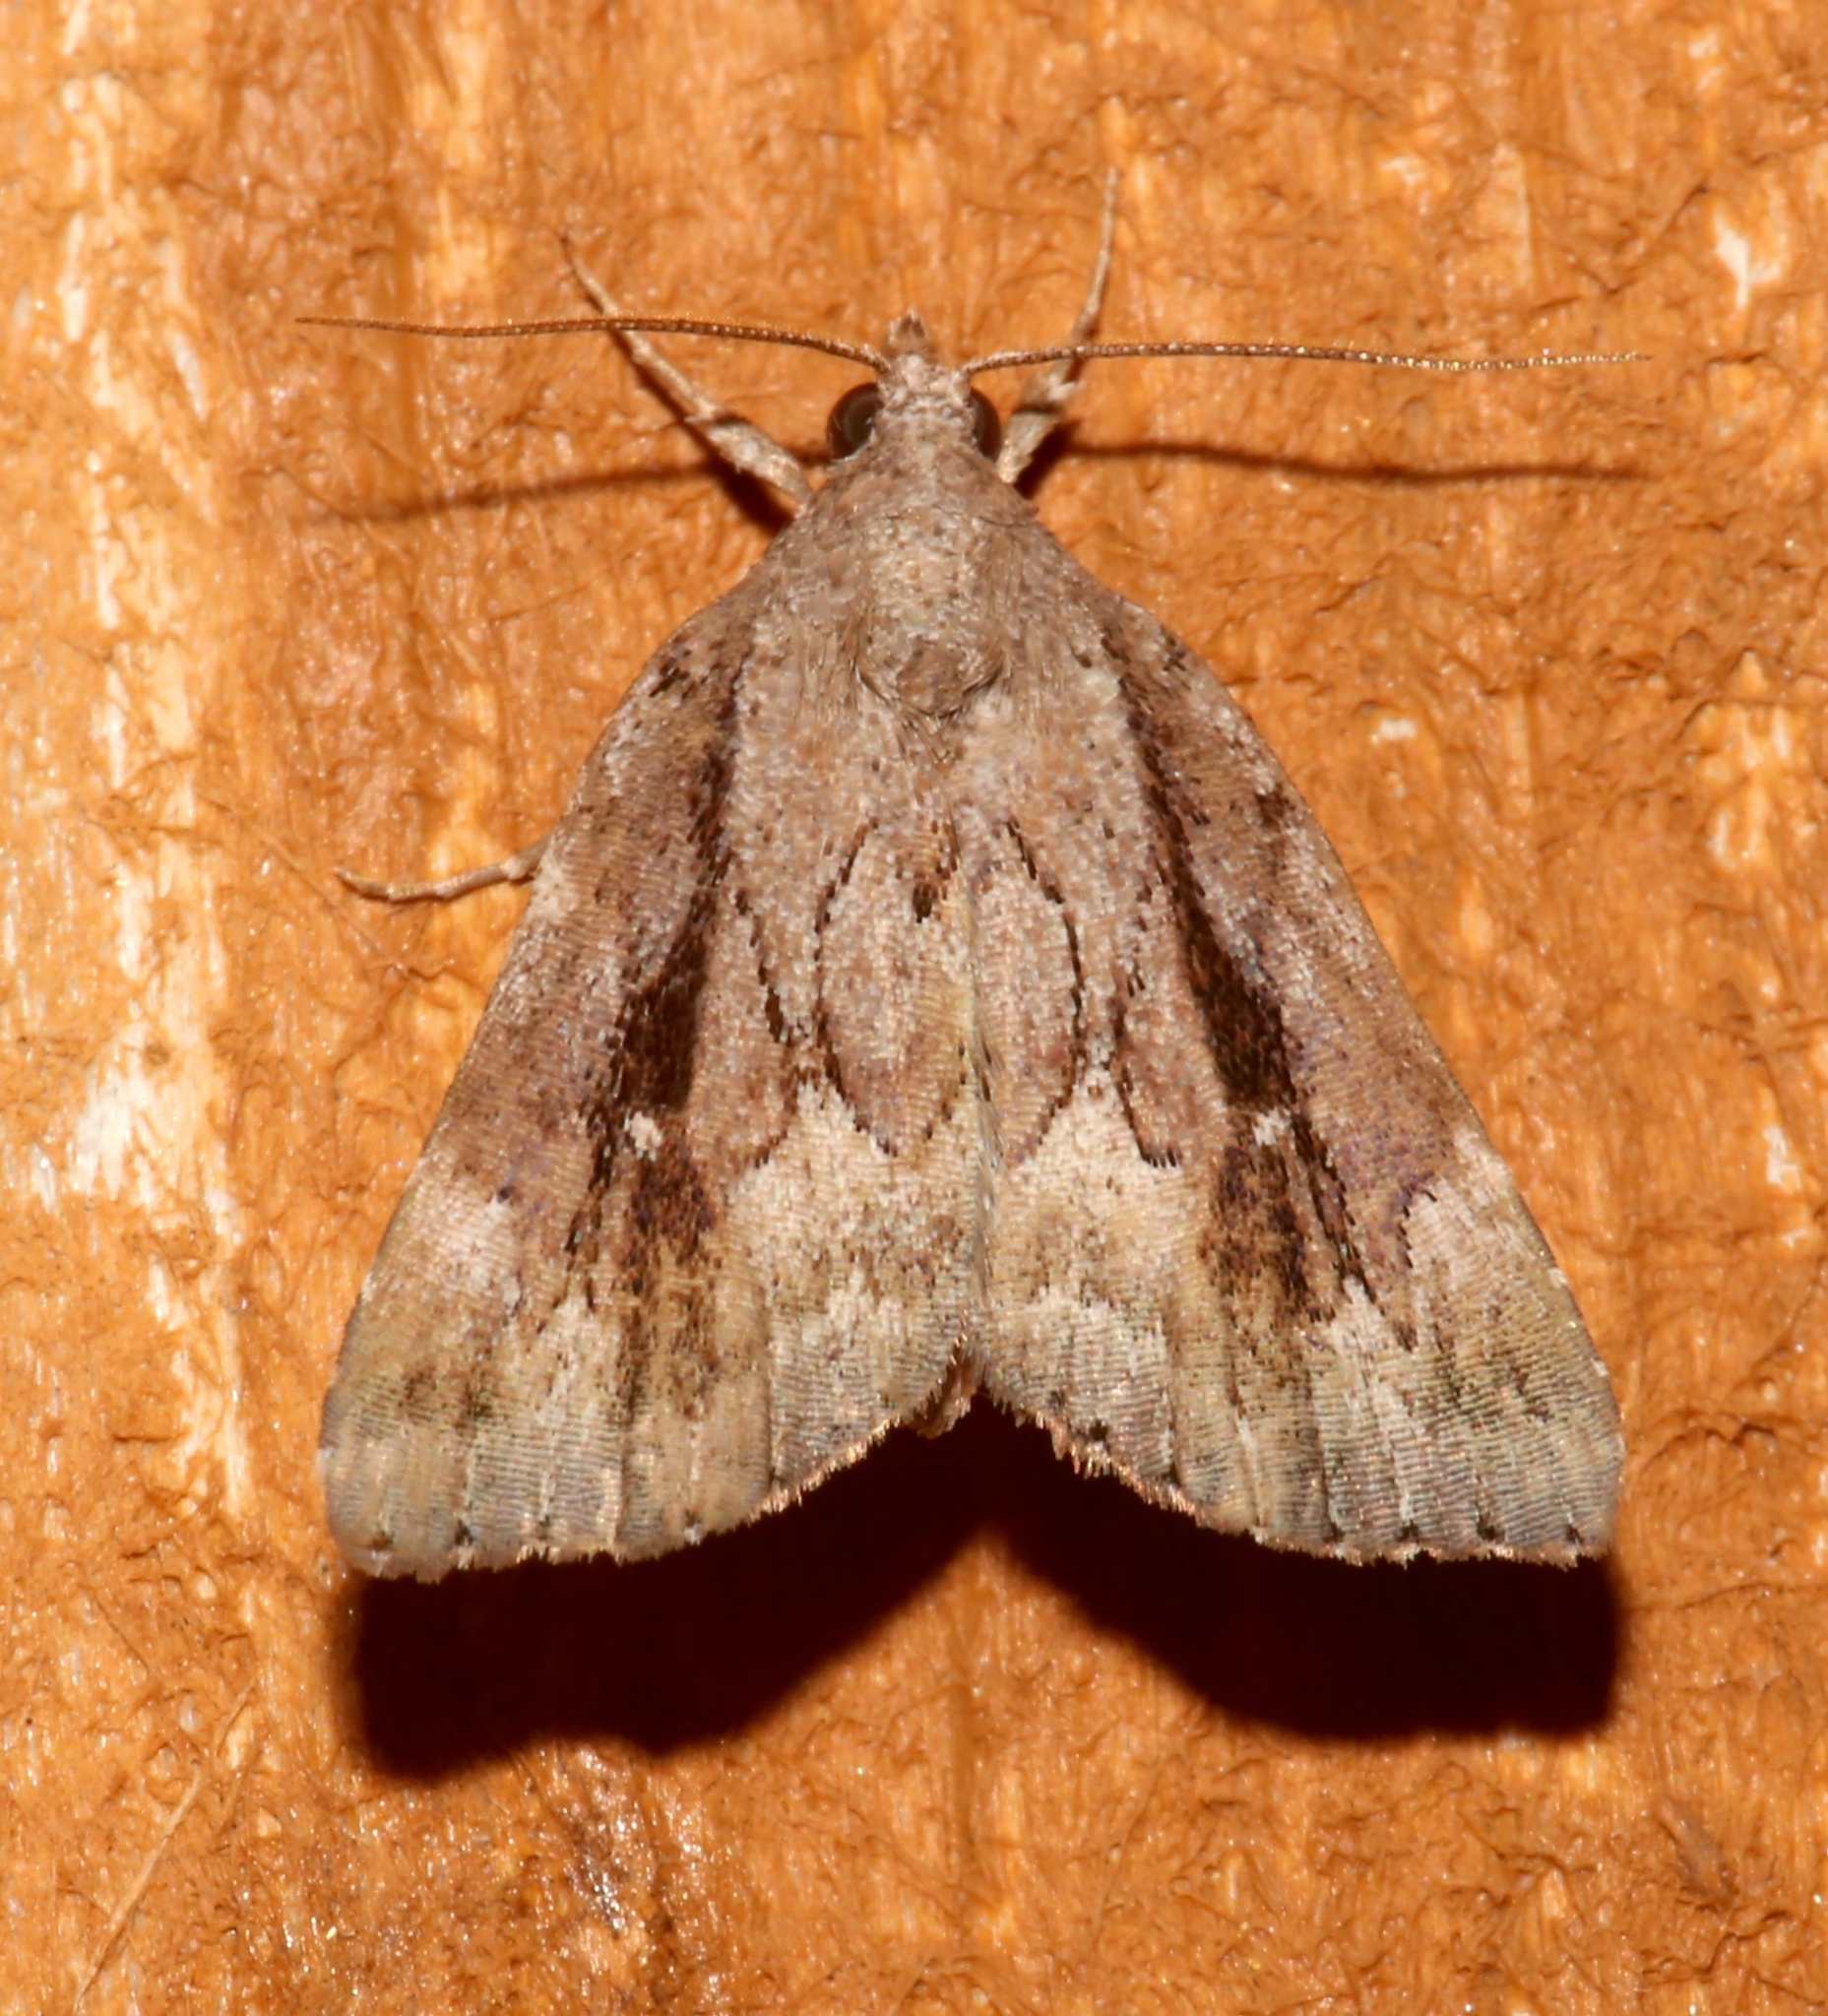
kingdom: Animalia
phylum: Arthropoda
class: Insecta
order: Lepidoptera
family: Erebidae
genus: Cutina
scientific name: Cutina albopunctella
